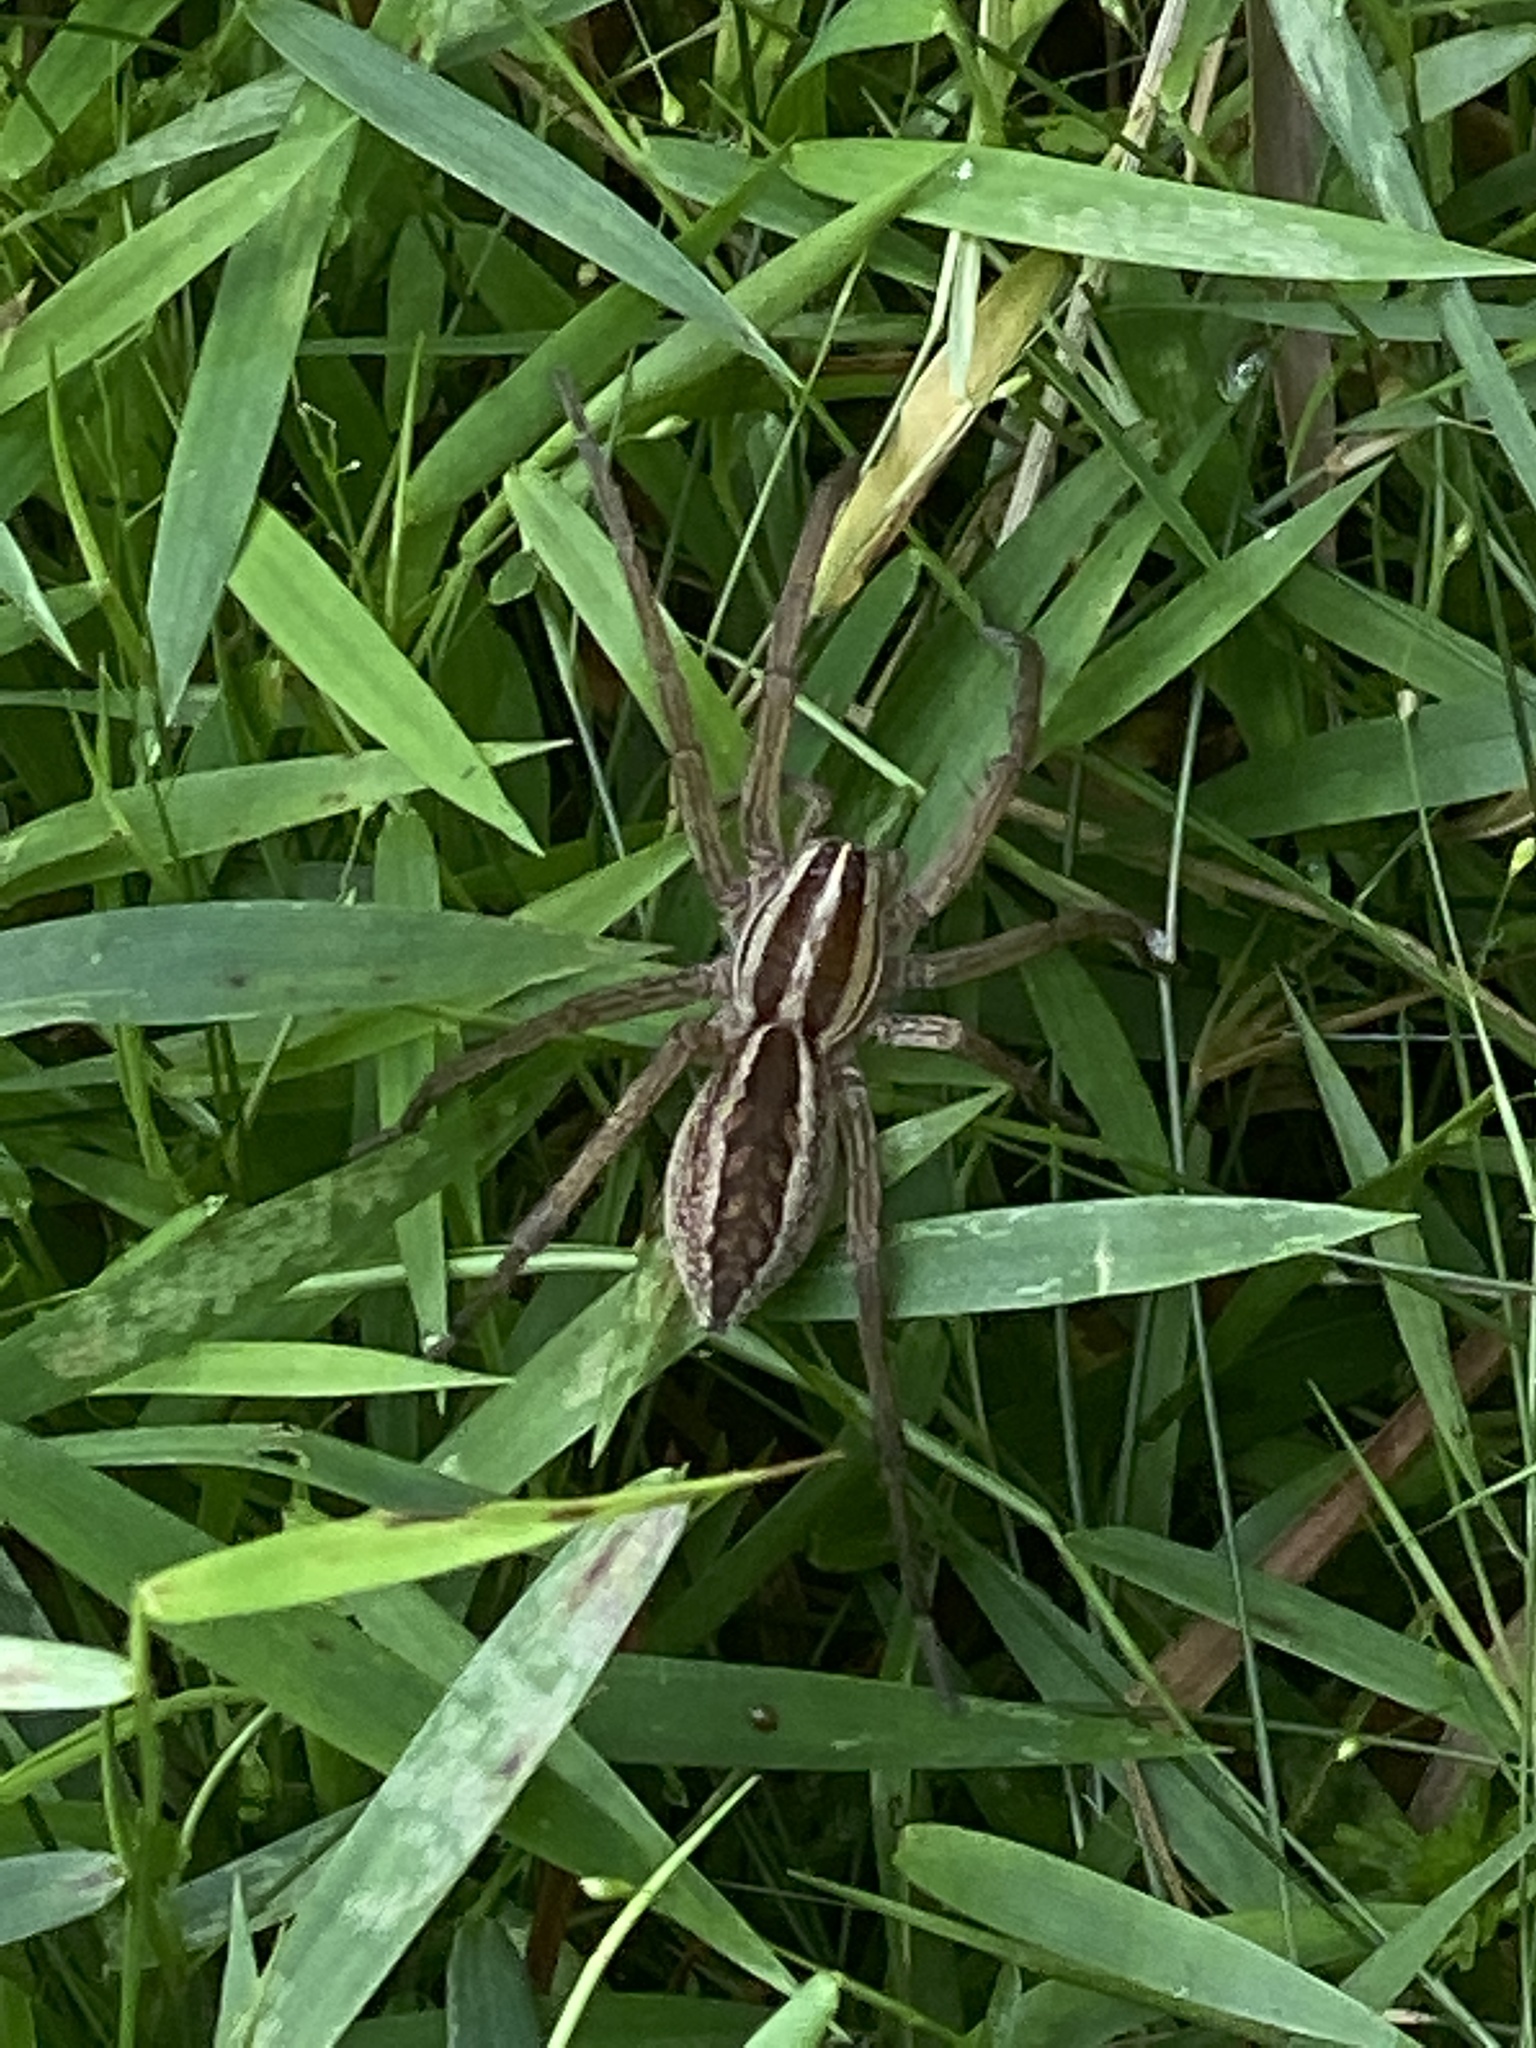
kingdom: Animalia
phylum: Arthropoda
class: Arachnida
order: Araneae
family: Lycosidae
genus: Rabidosa
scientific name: Rabidosa rabida
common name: Rabid wolf spider
